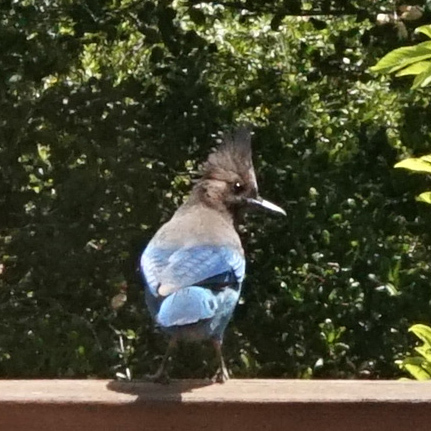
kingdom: Animalia
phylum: Chordata
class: Aves
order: Passeriformes
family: Corvidae
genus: Cyanocitta
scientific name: Cyanocitta stelleri
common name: Steller's jay
